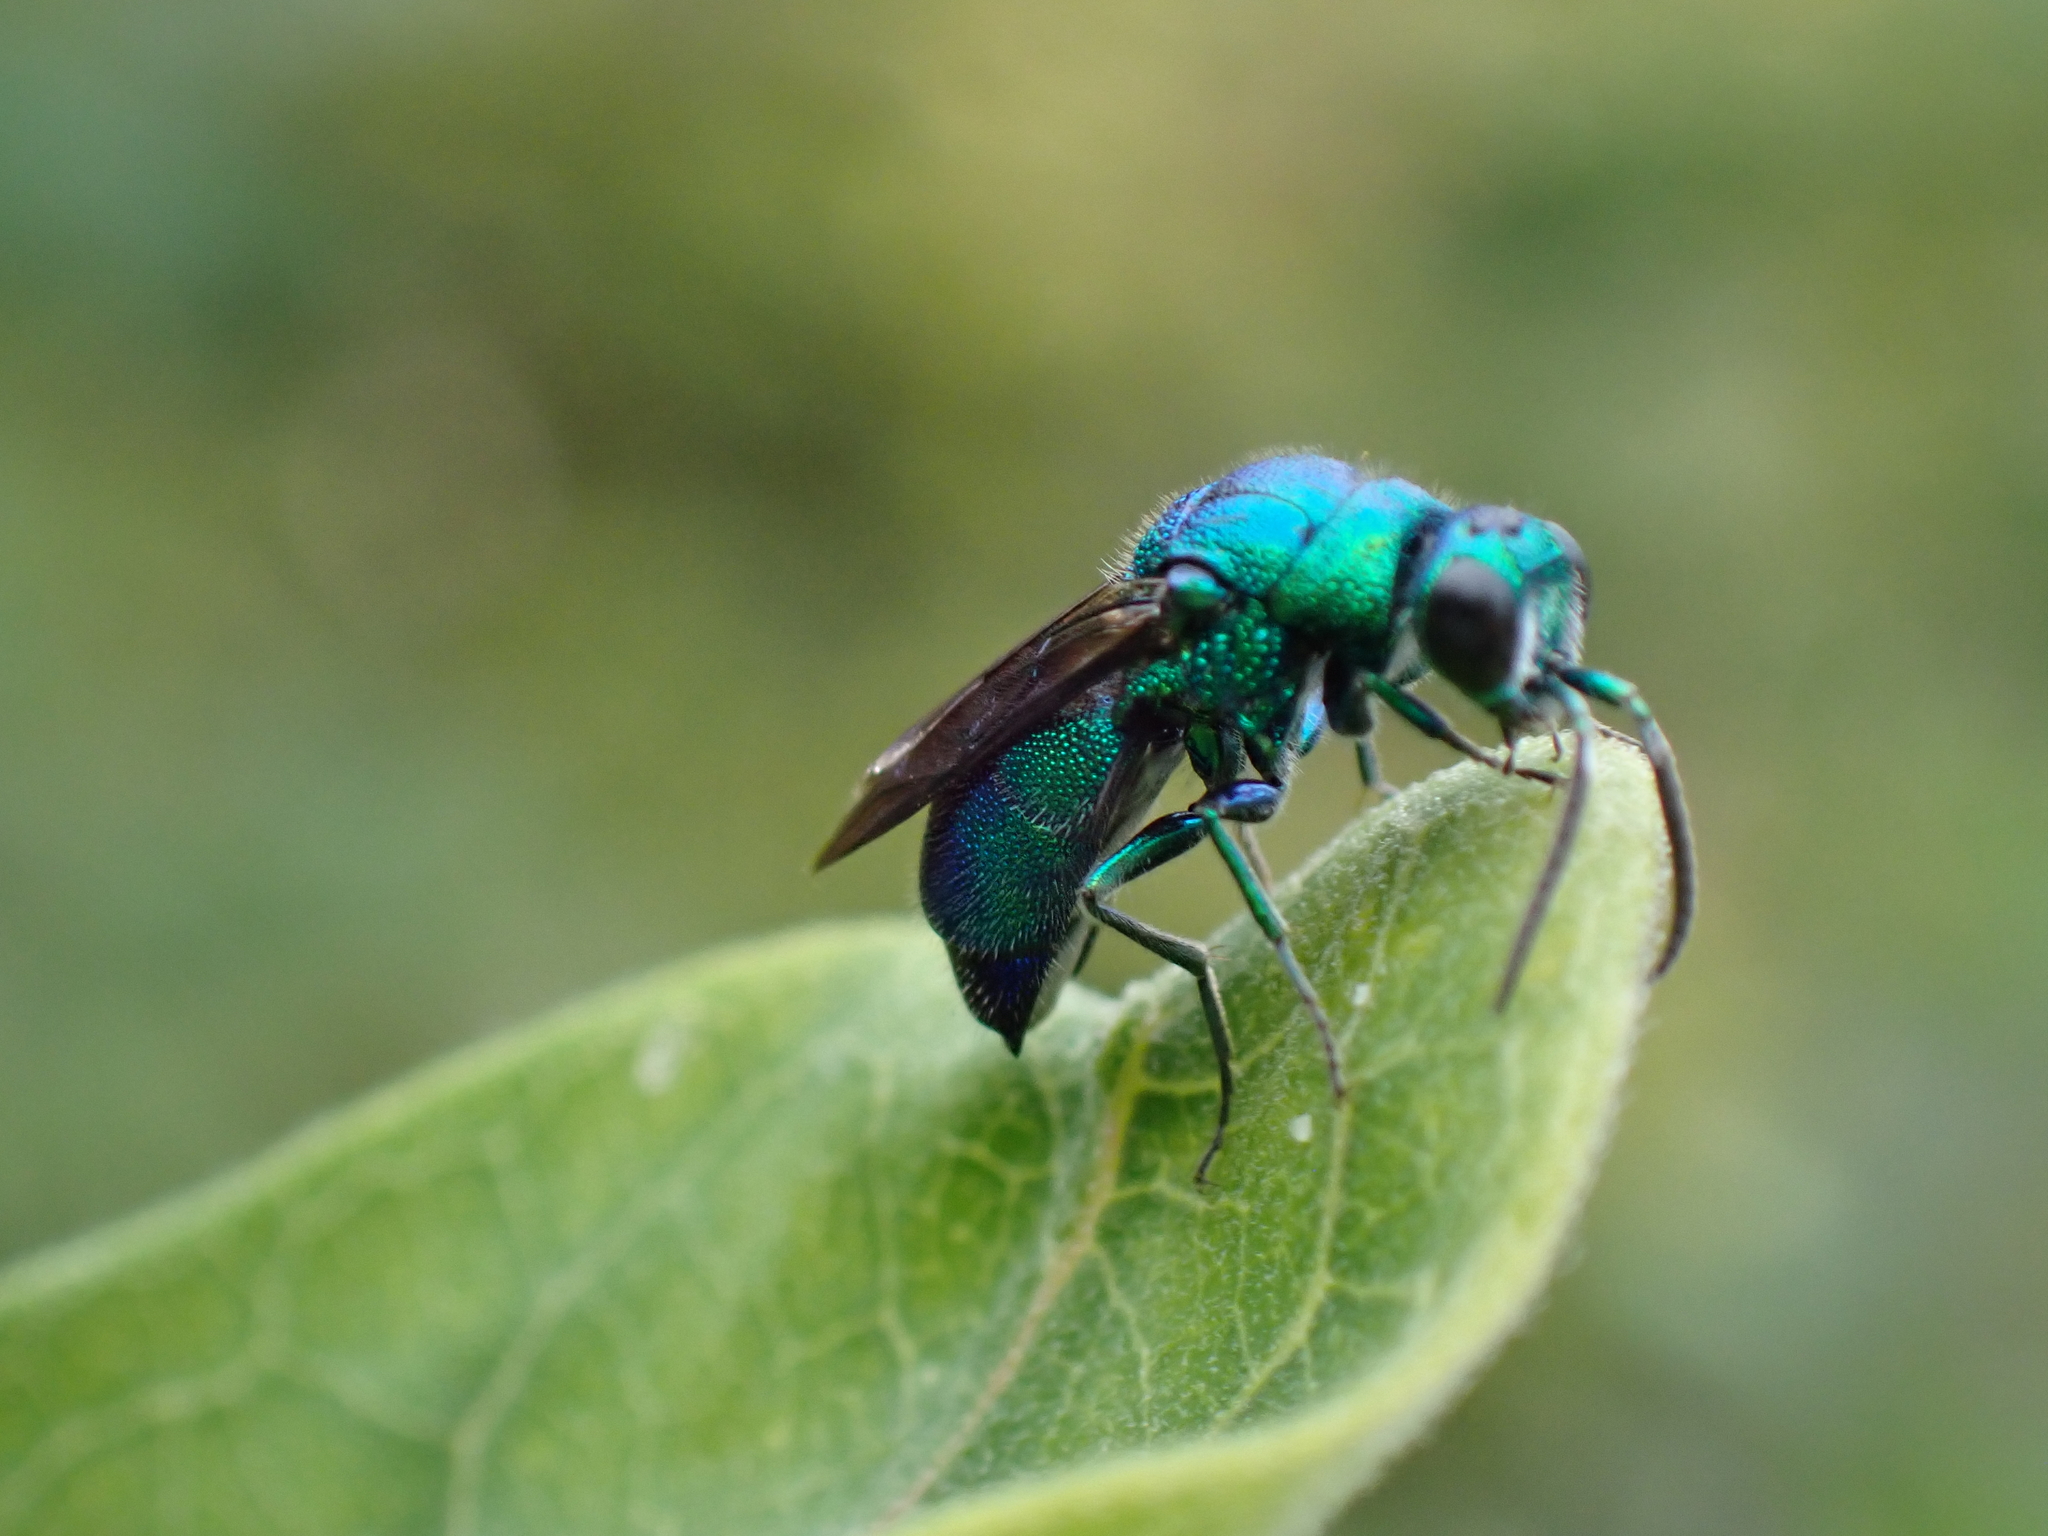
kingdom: Animalia
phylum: Arthropoda
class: Insecta
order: Hymenoptera
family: Chrysididae
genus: Chrysis
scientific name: Chrysis angolensis
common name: Cuckoo wasp
